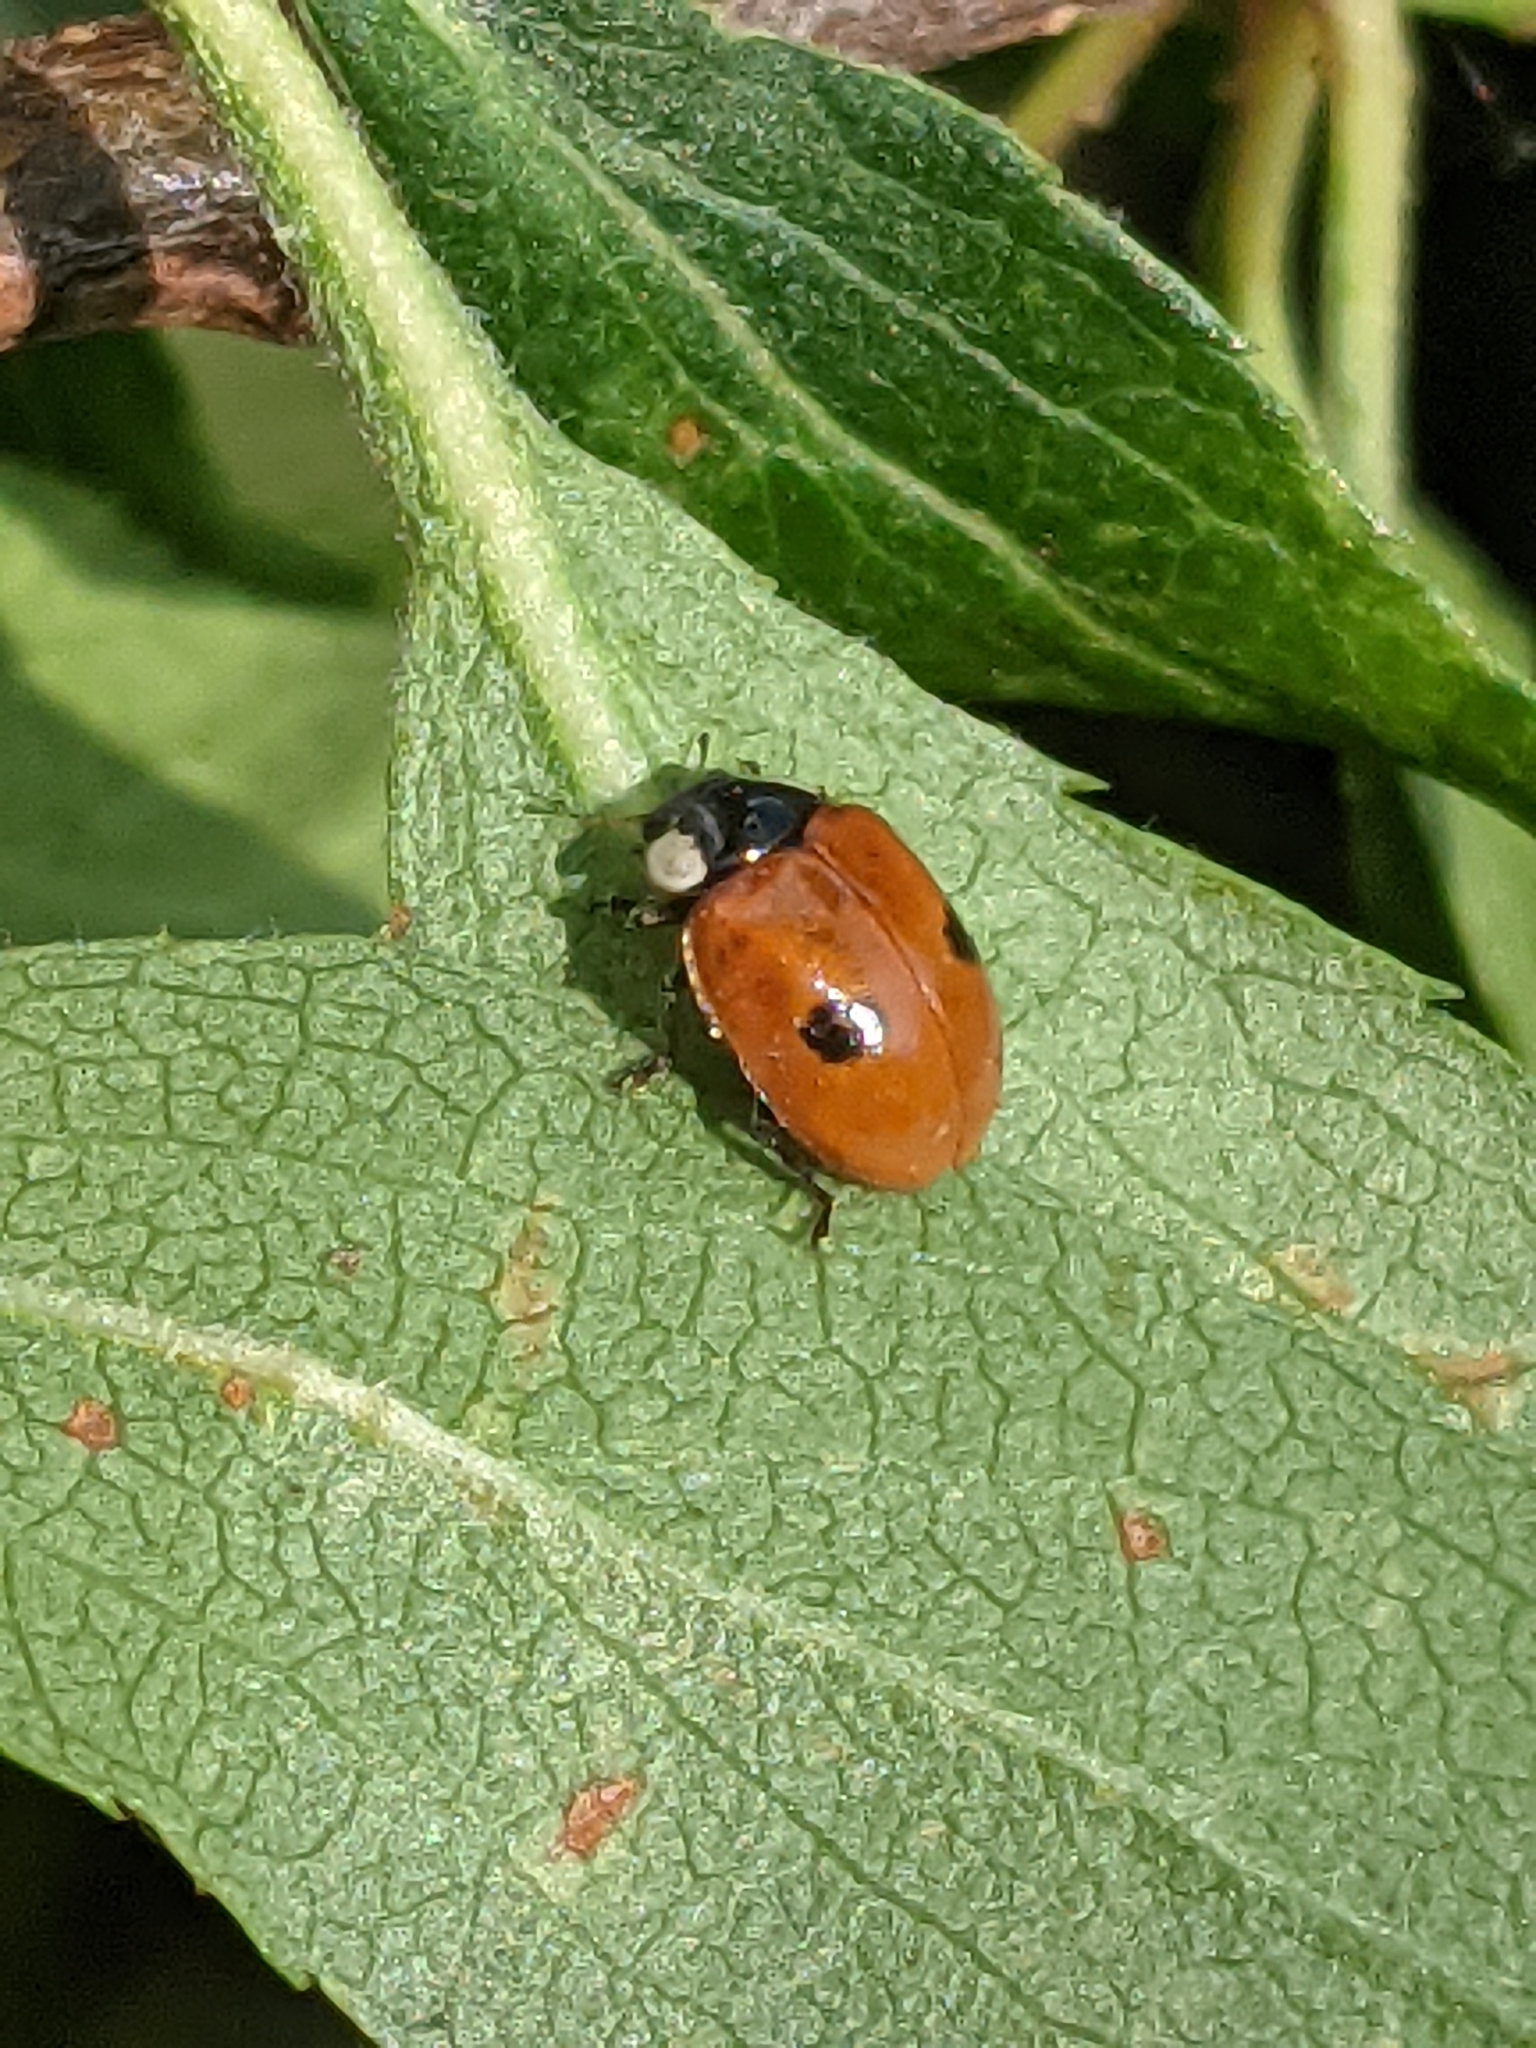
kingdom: Animalia
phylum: Arthropoda
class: Insecta
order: Coleoptera
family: Coccinellidae
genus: Adalia
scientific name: Adalia bipunctata
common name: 2-spot ladybird
